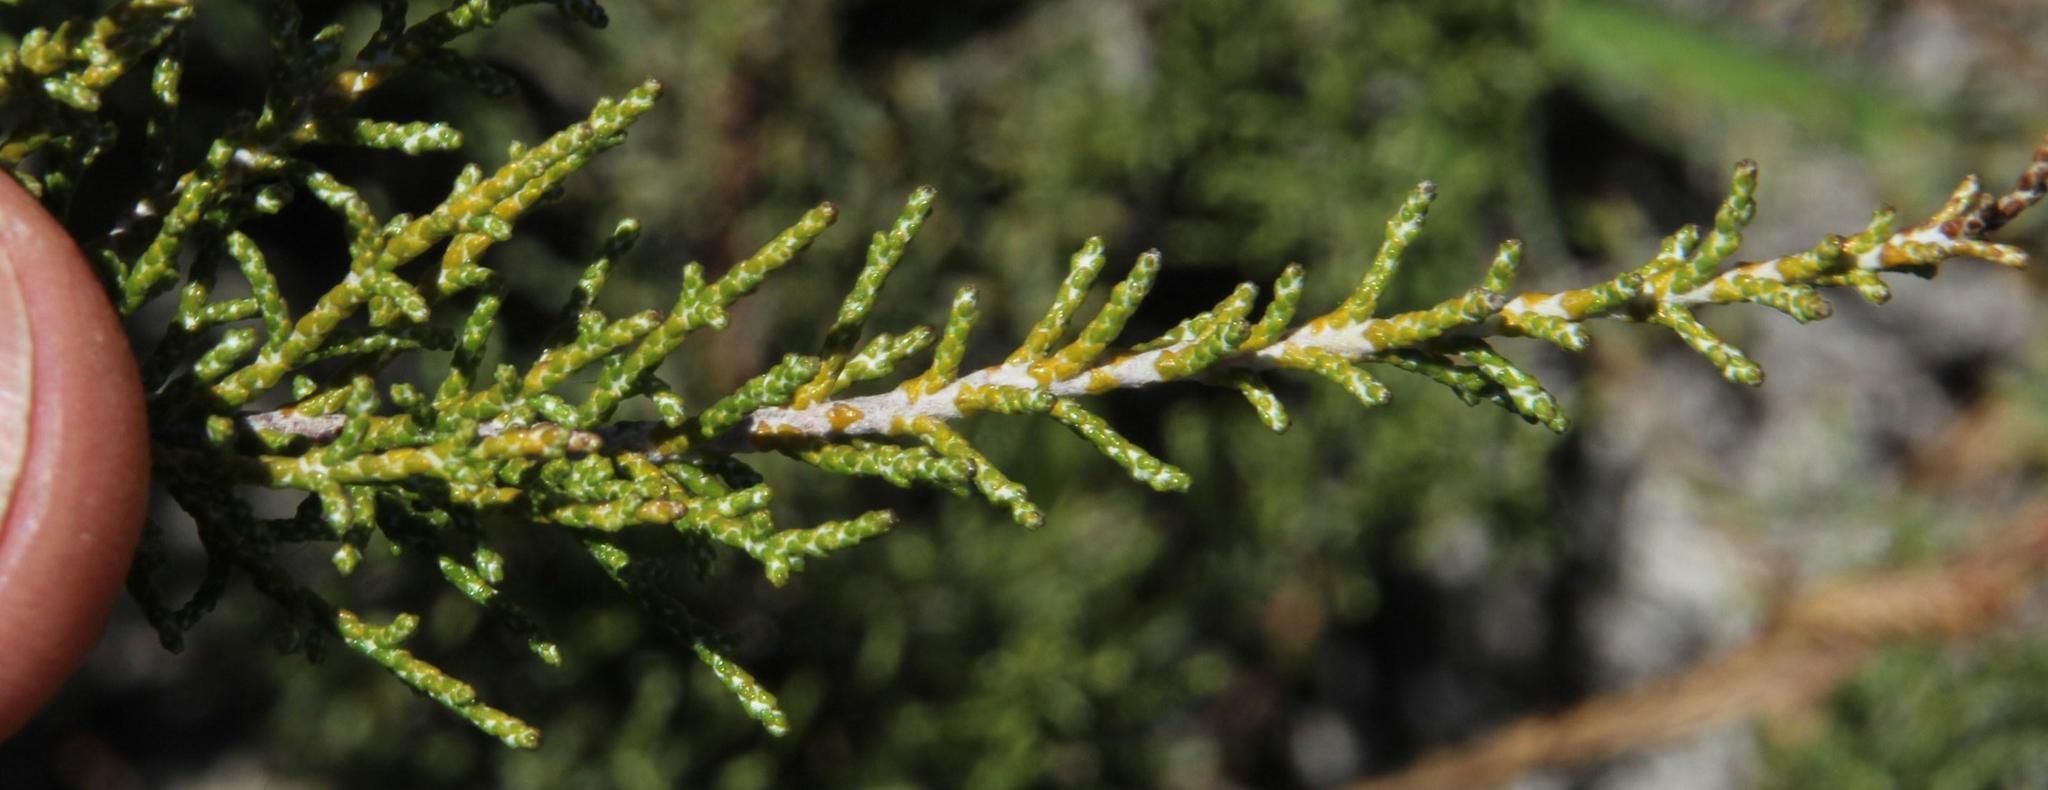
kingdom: Plantae
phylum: Tracheophyta
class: Magnoliopsida
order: Asterales
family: Asteraceae
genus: Dicerothamnus
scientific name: Dicerothamnus rhinocerotis
